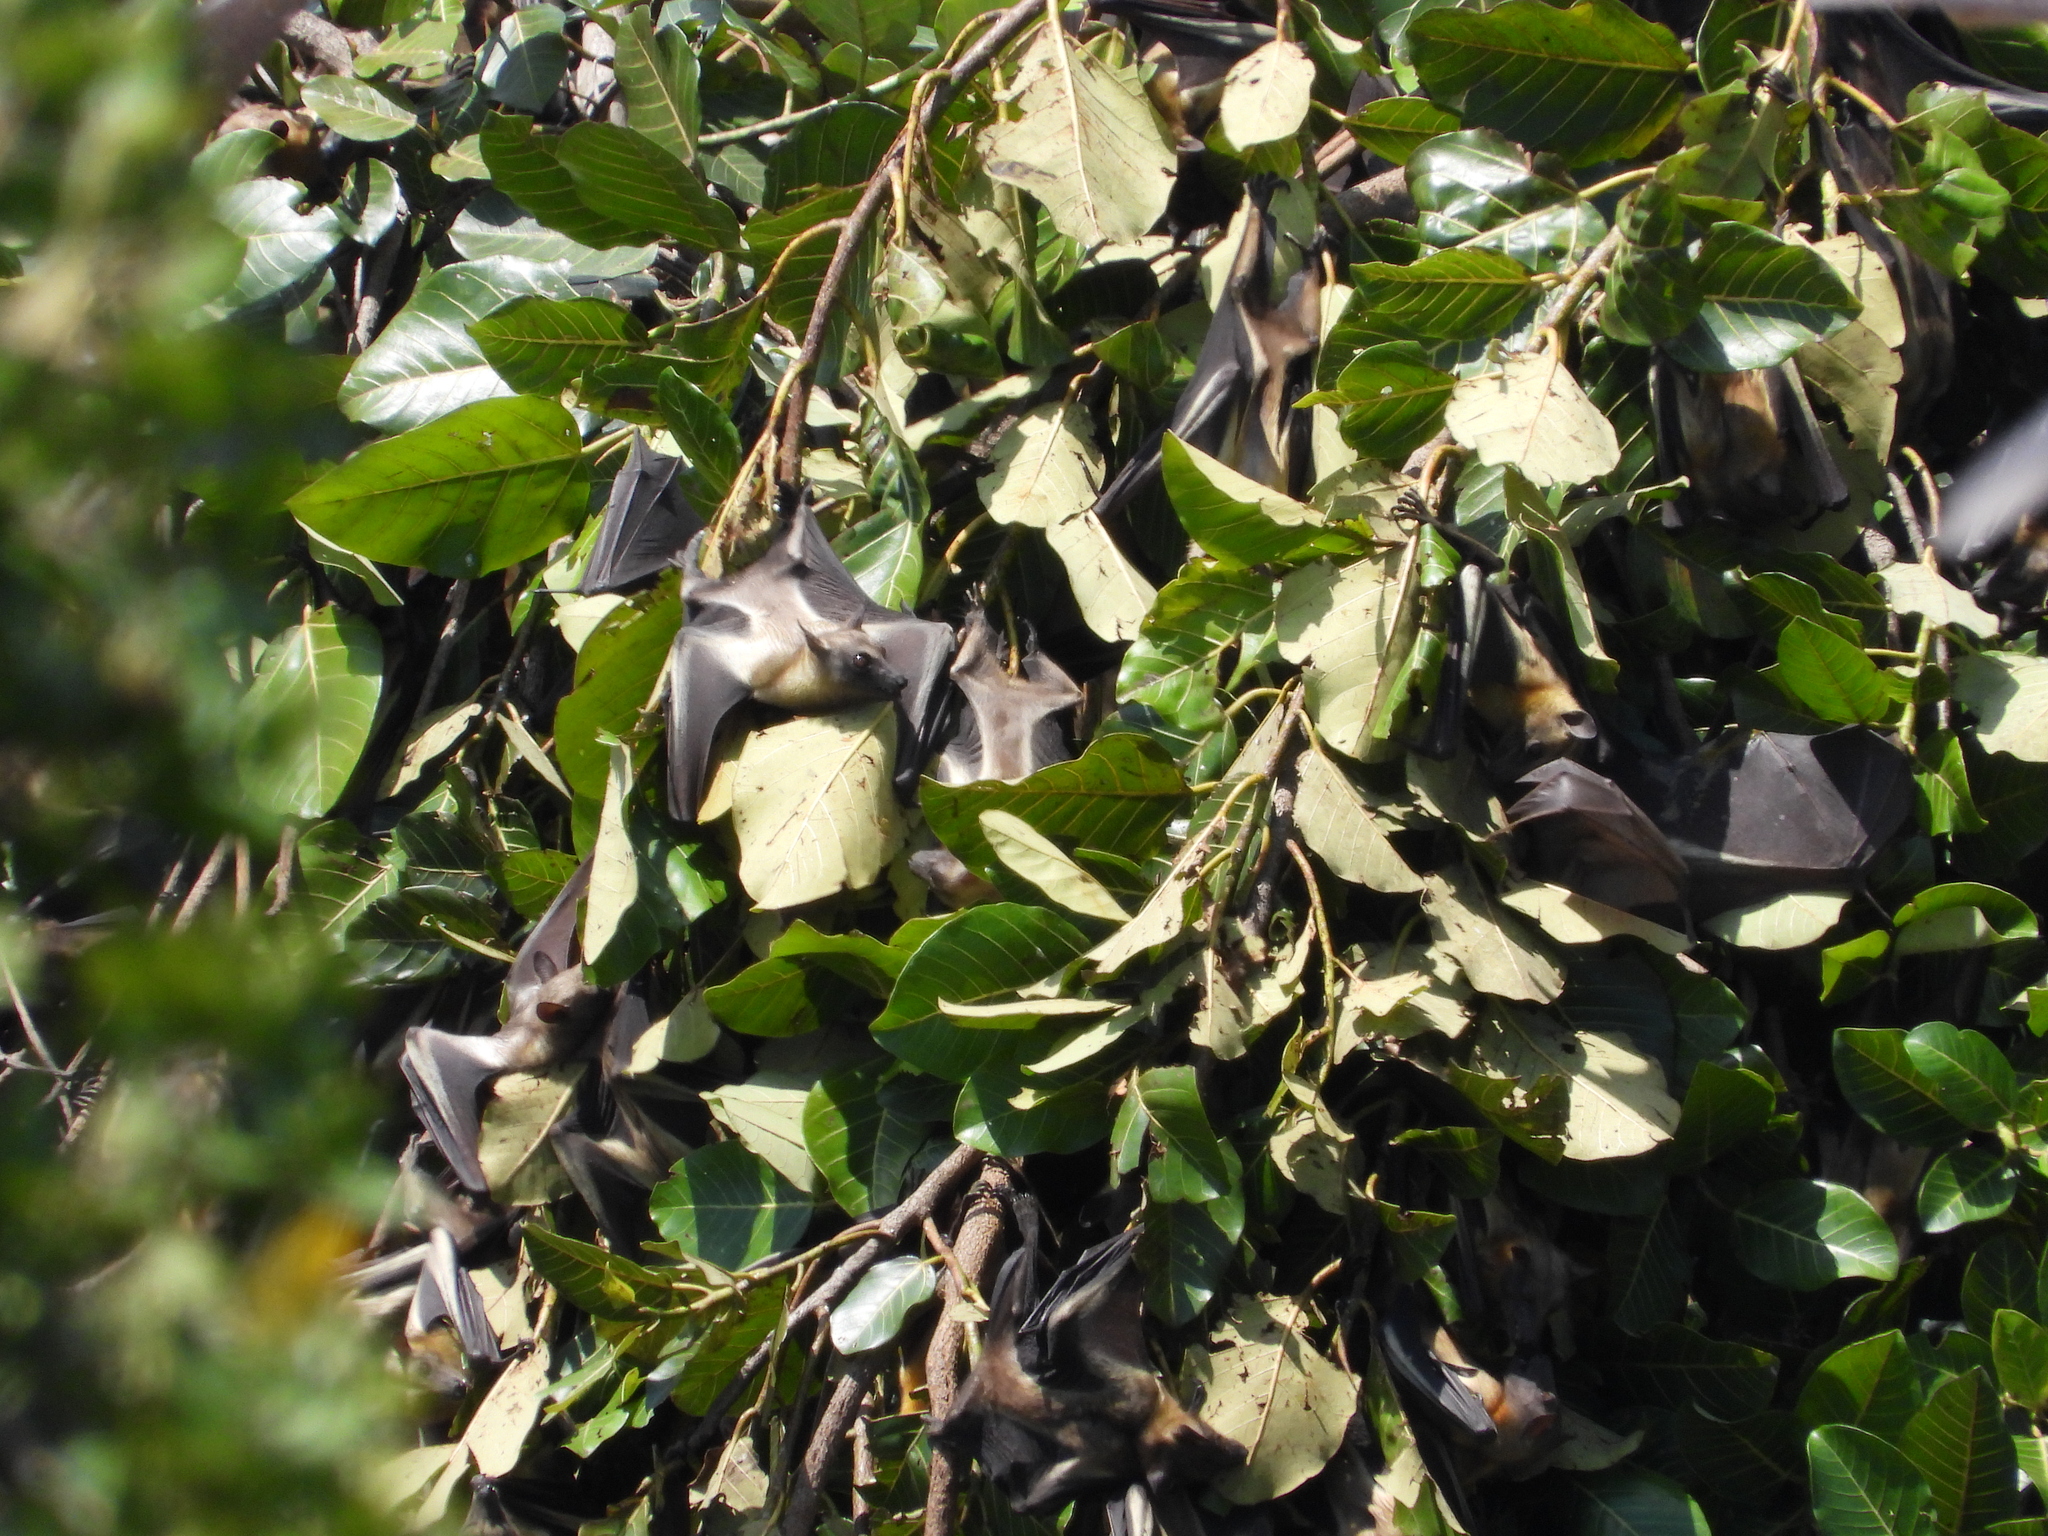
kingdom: Animalia
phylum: Chordata
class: Mammalia
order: Chiroptera
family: Pteropodidae
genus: Eidolon
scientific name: Eidolon helvum
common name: Straw-colored fruit bat
